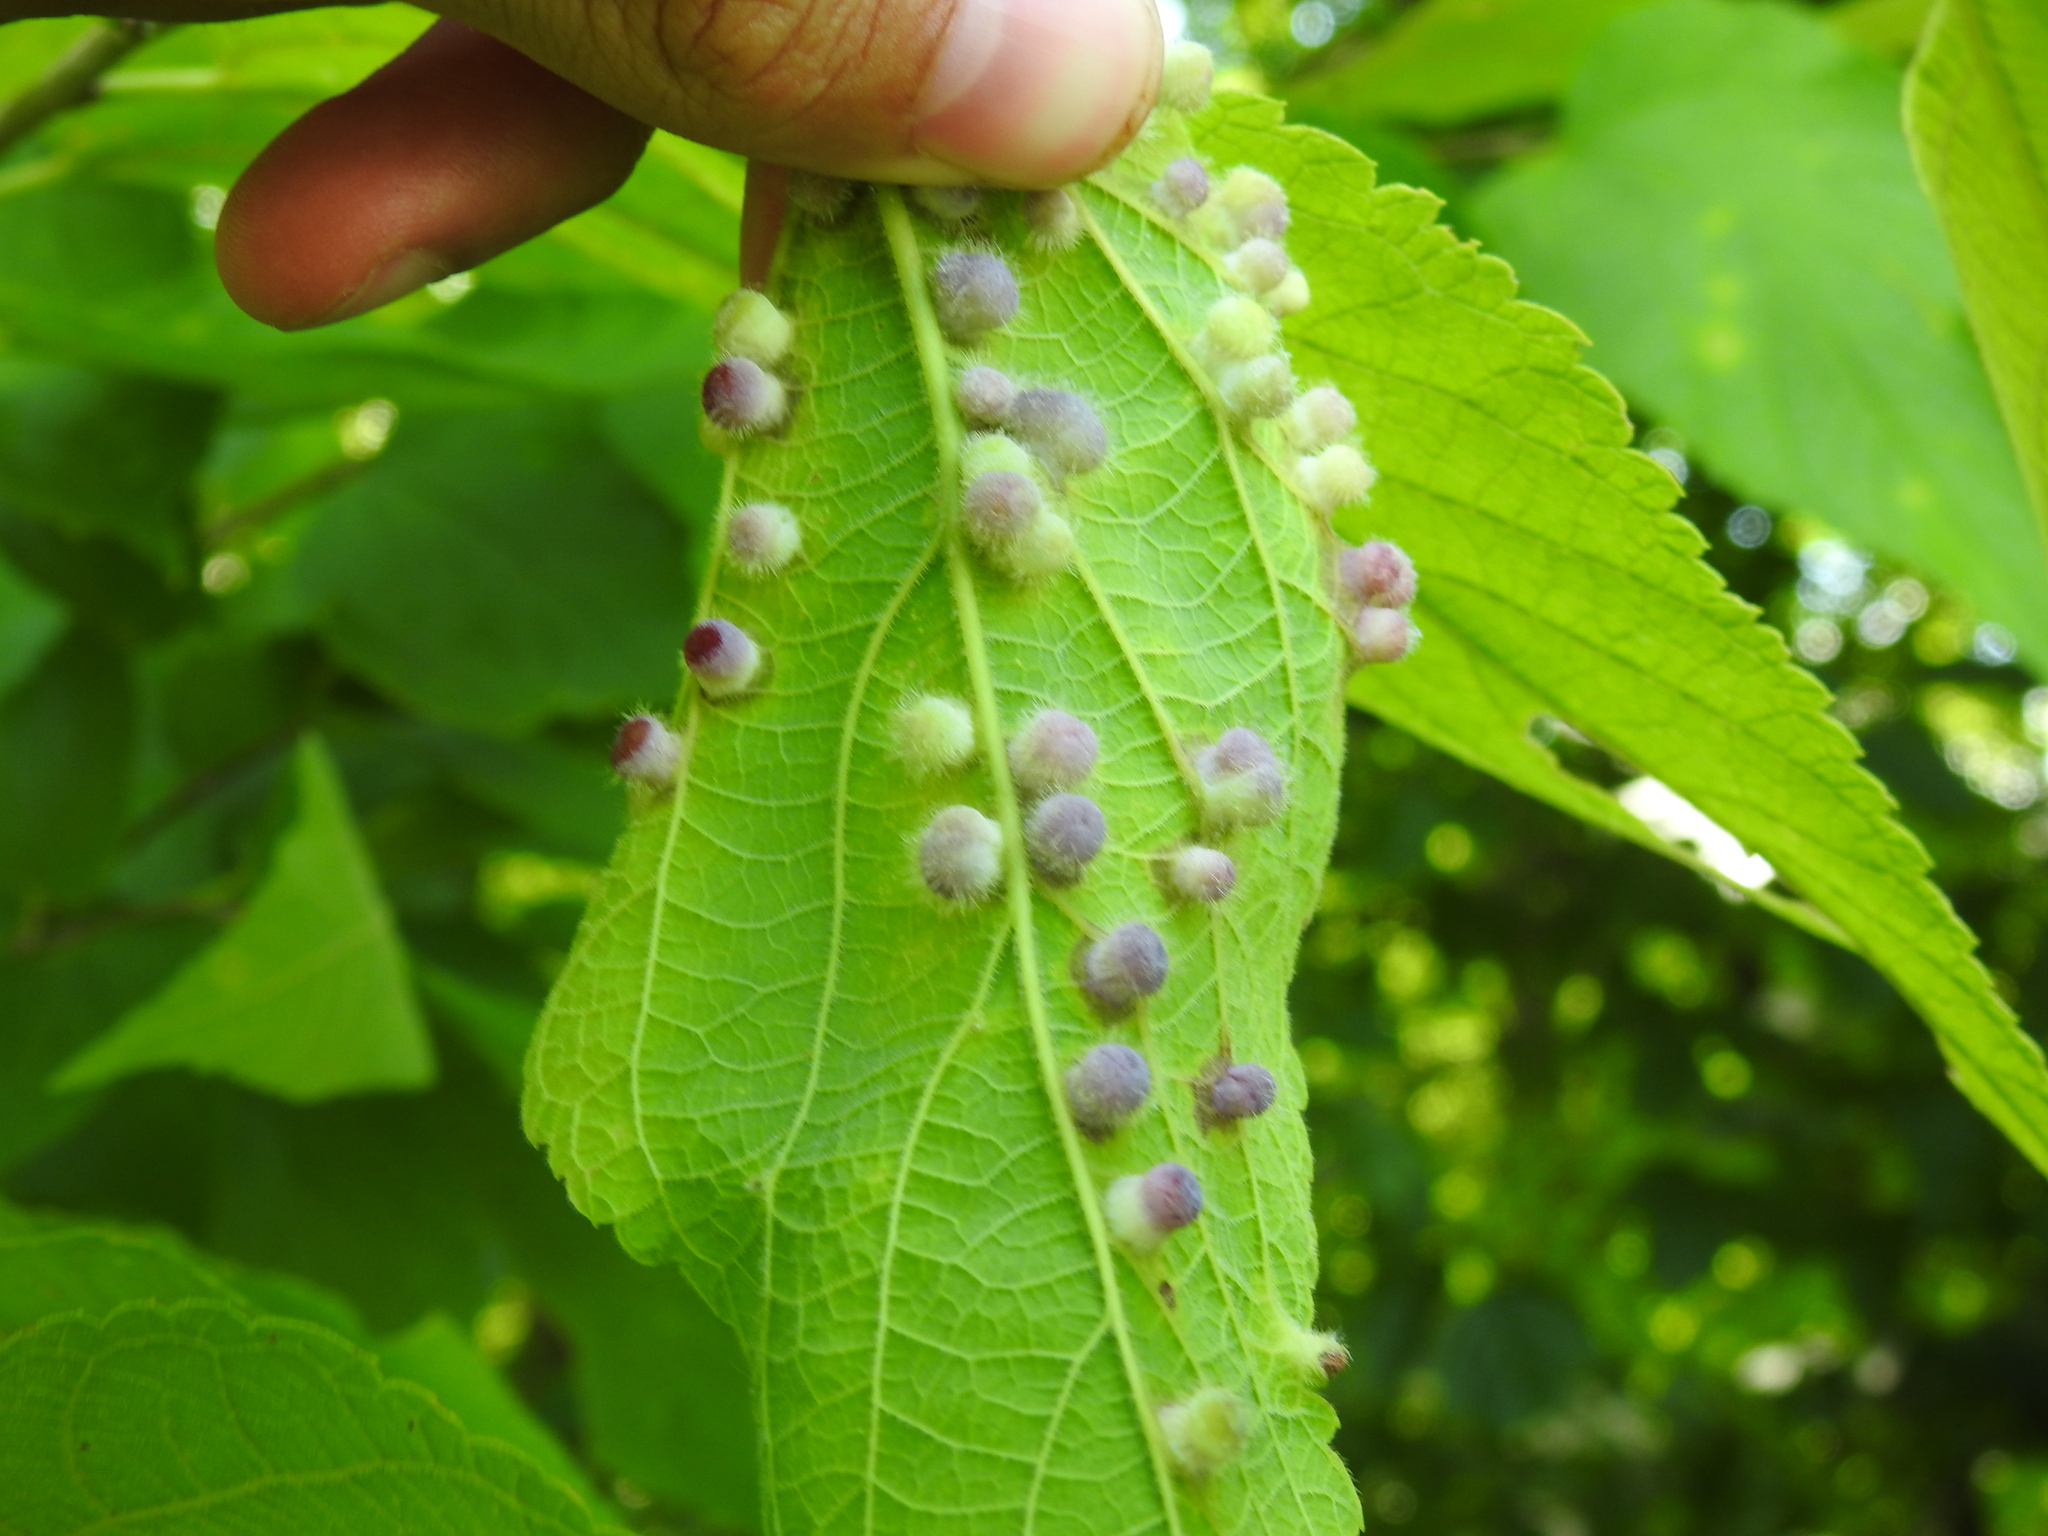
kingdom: Animalia
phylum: Arthropoda
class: Insecta
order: Hemiptera
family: Aphalaridae
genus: Pachypsylla
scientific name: Pachypsylla celtidismamma
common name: Hackberry nipplegall psyllid
